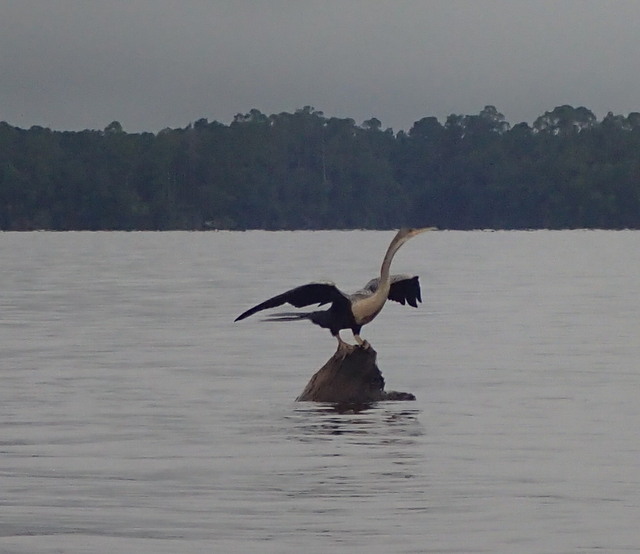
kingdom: Animalia
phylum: Chordata
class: Aves
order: Suliformes
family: Anhingidae
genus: Anhinga
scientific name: Anhinga anhinga
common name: Anhinga
